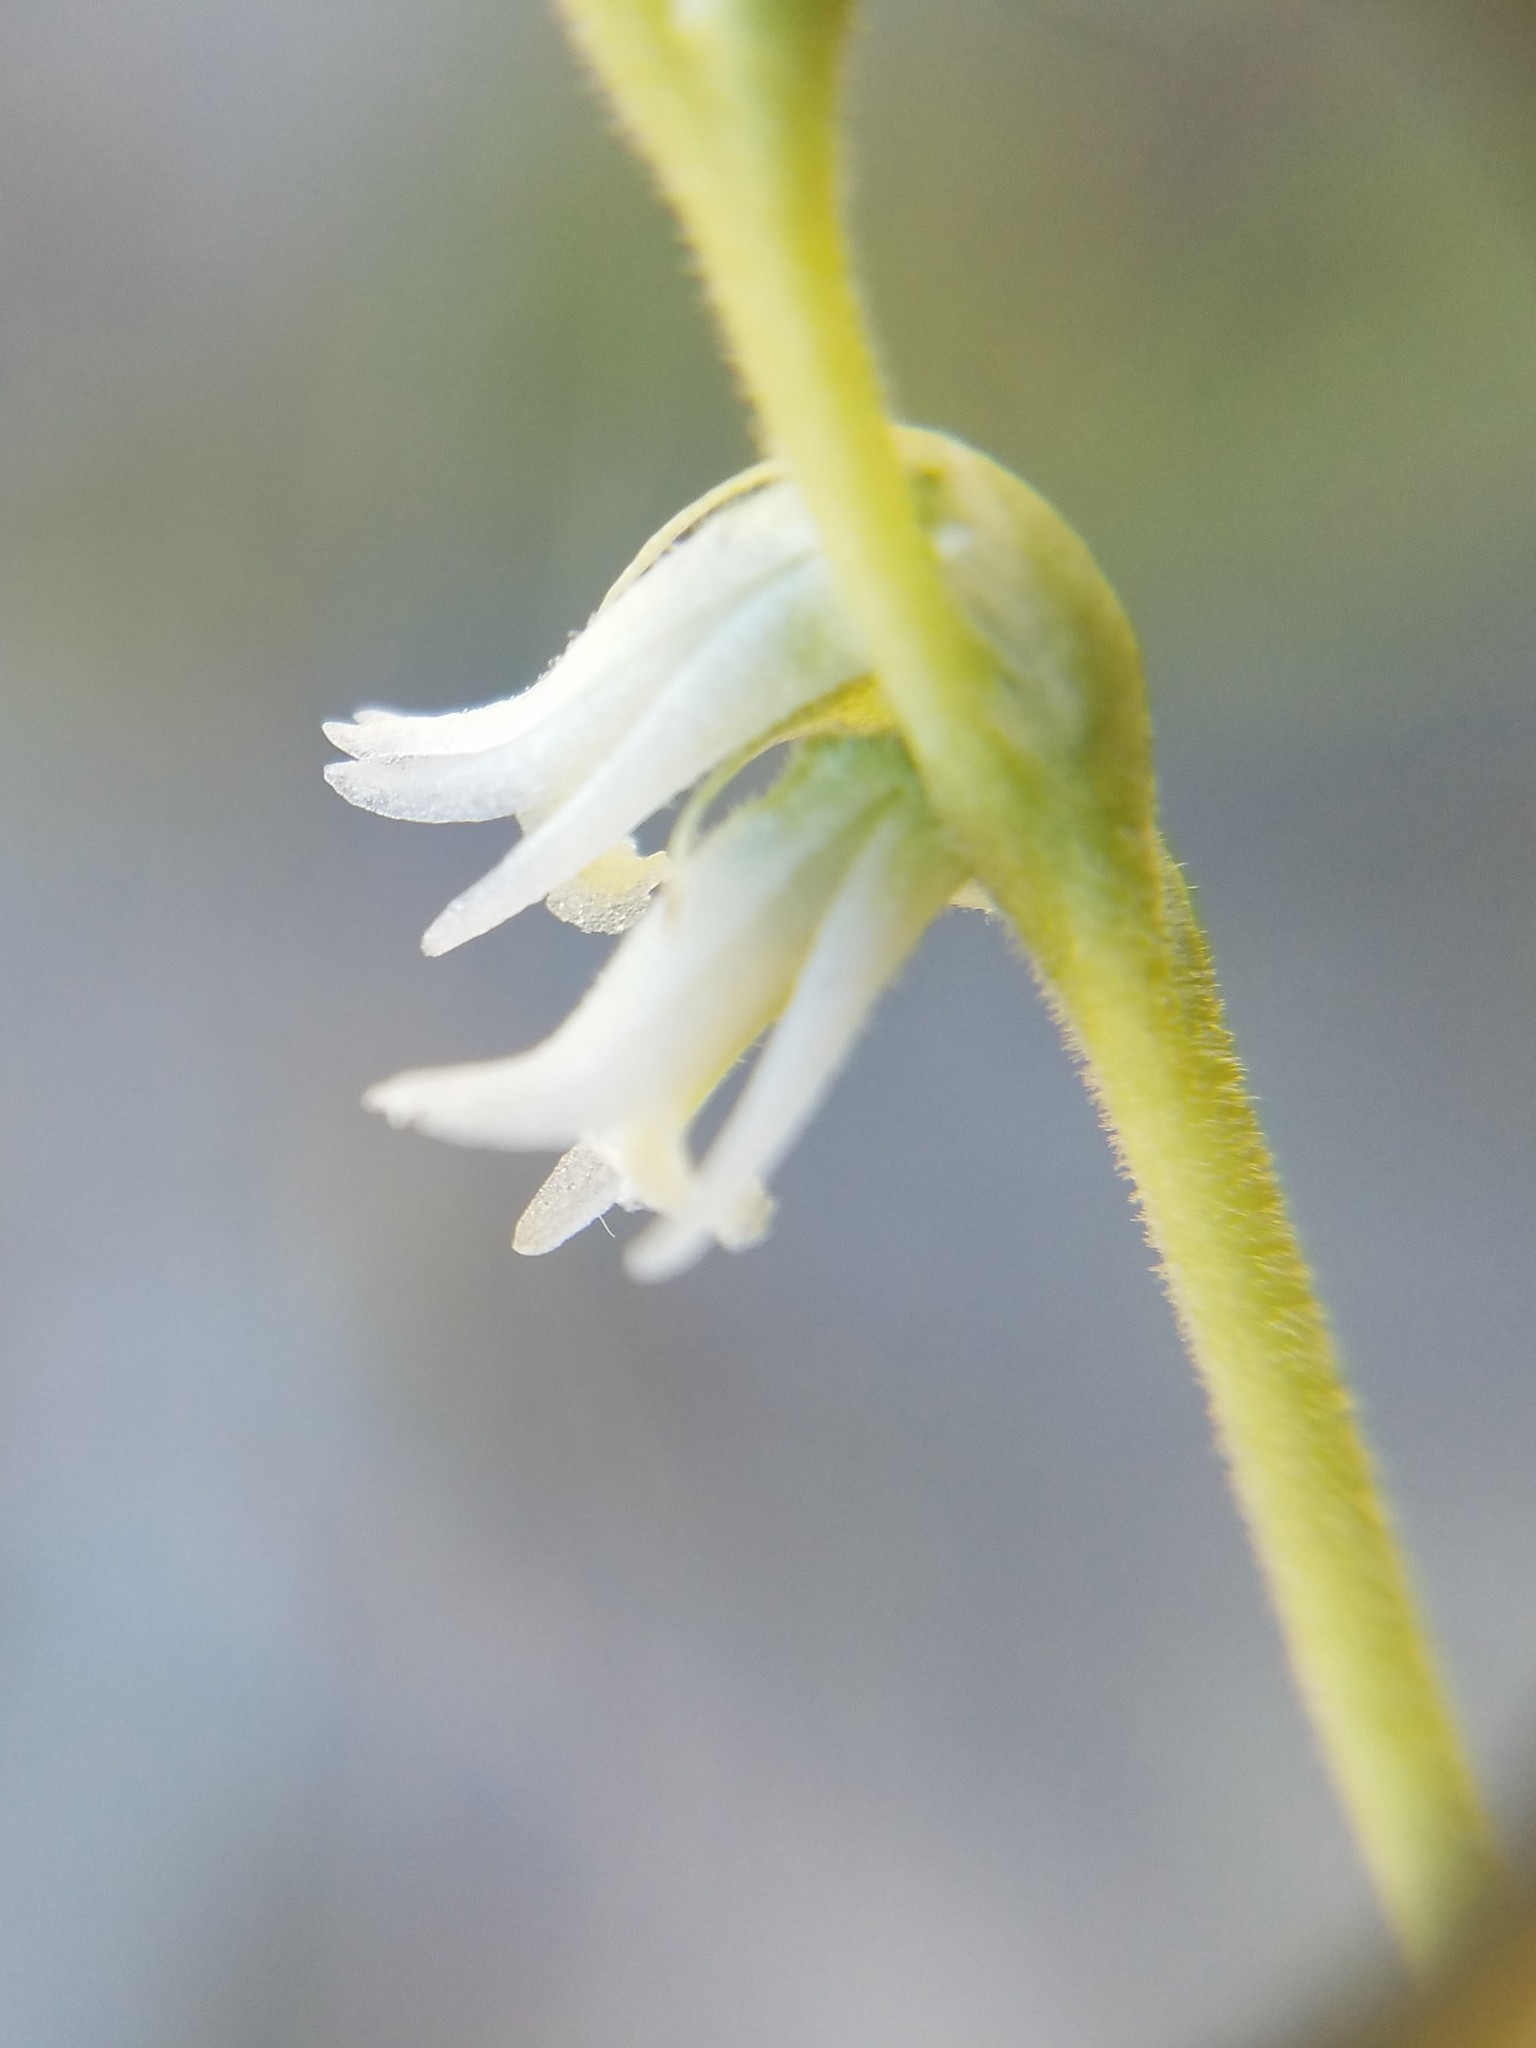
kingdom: Plantae
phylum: Tracheophyta
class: Liliopsida
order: Asparagales
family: Orchidaceae
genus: Spiranthes
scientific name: Spiranthes vernalis
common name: Spring ladies'-tresses
